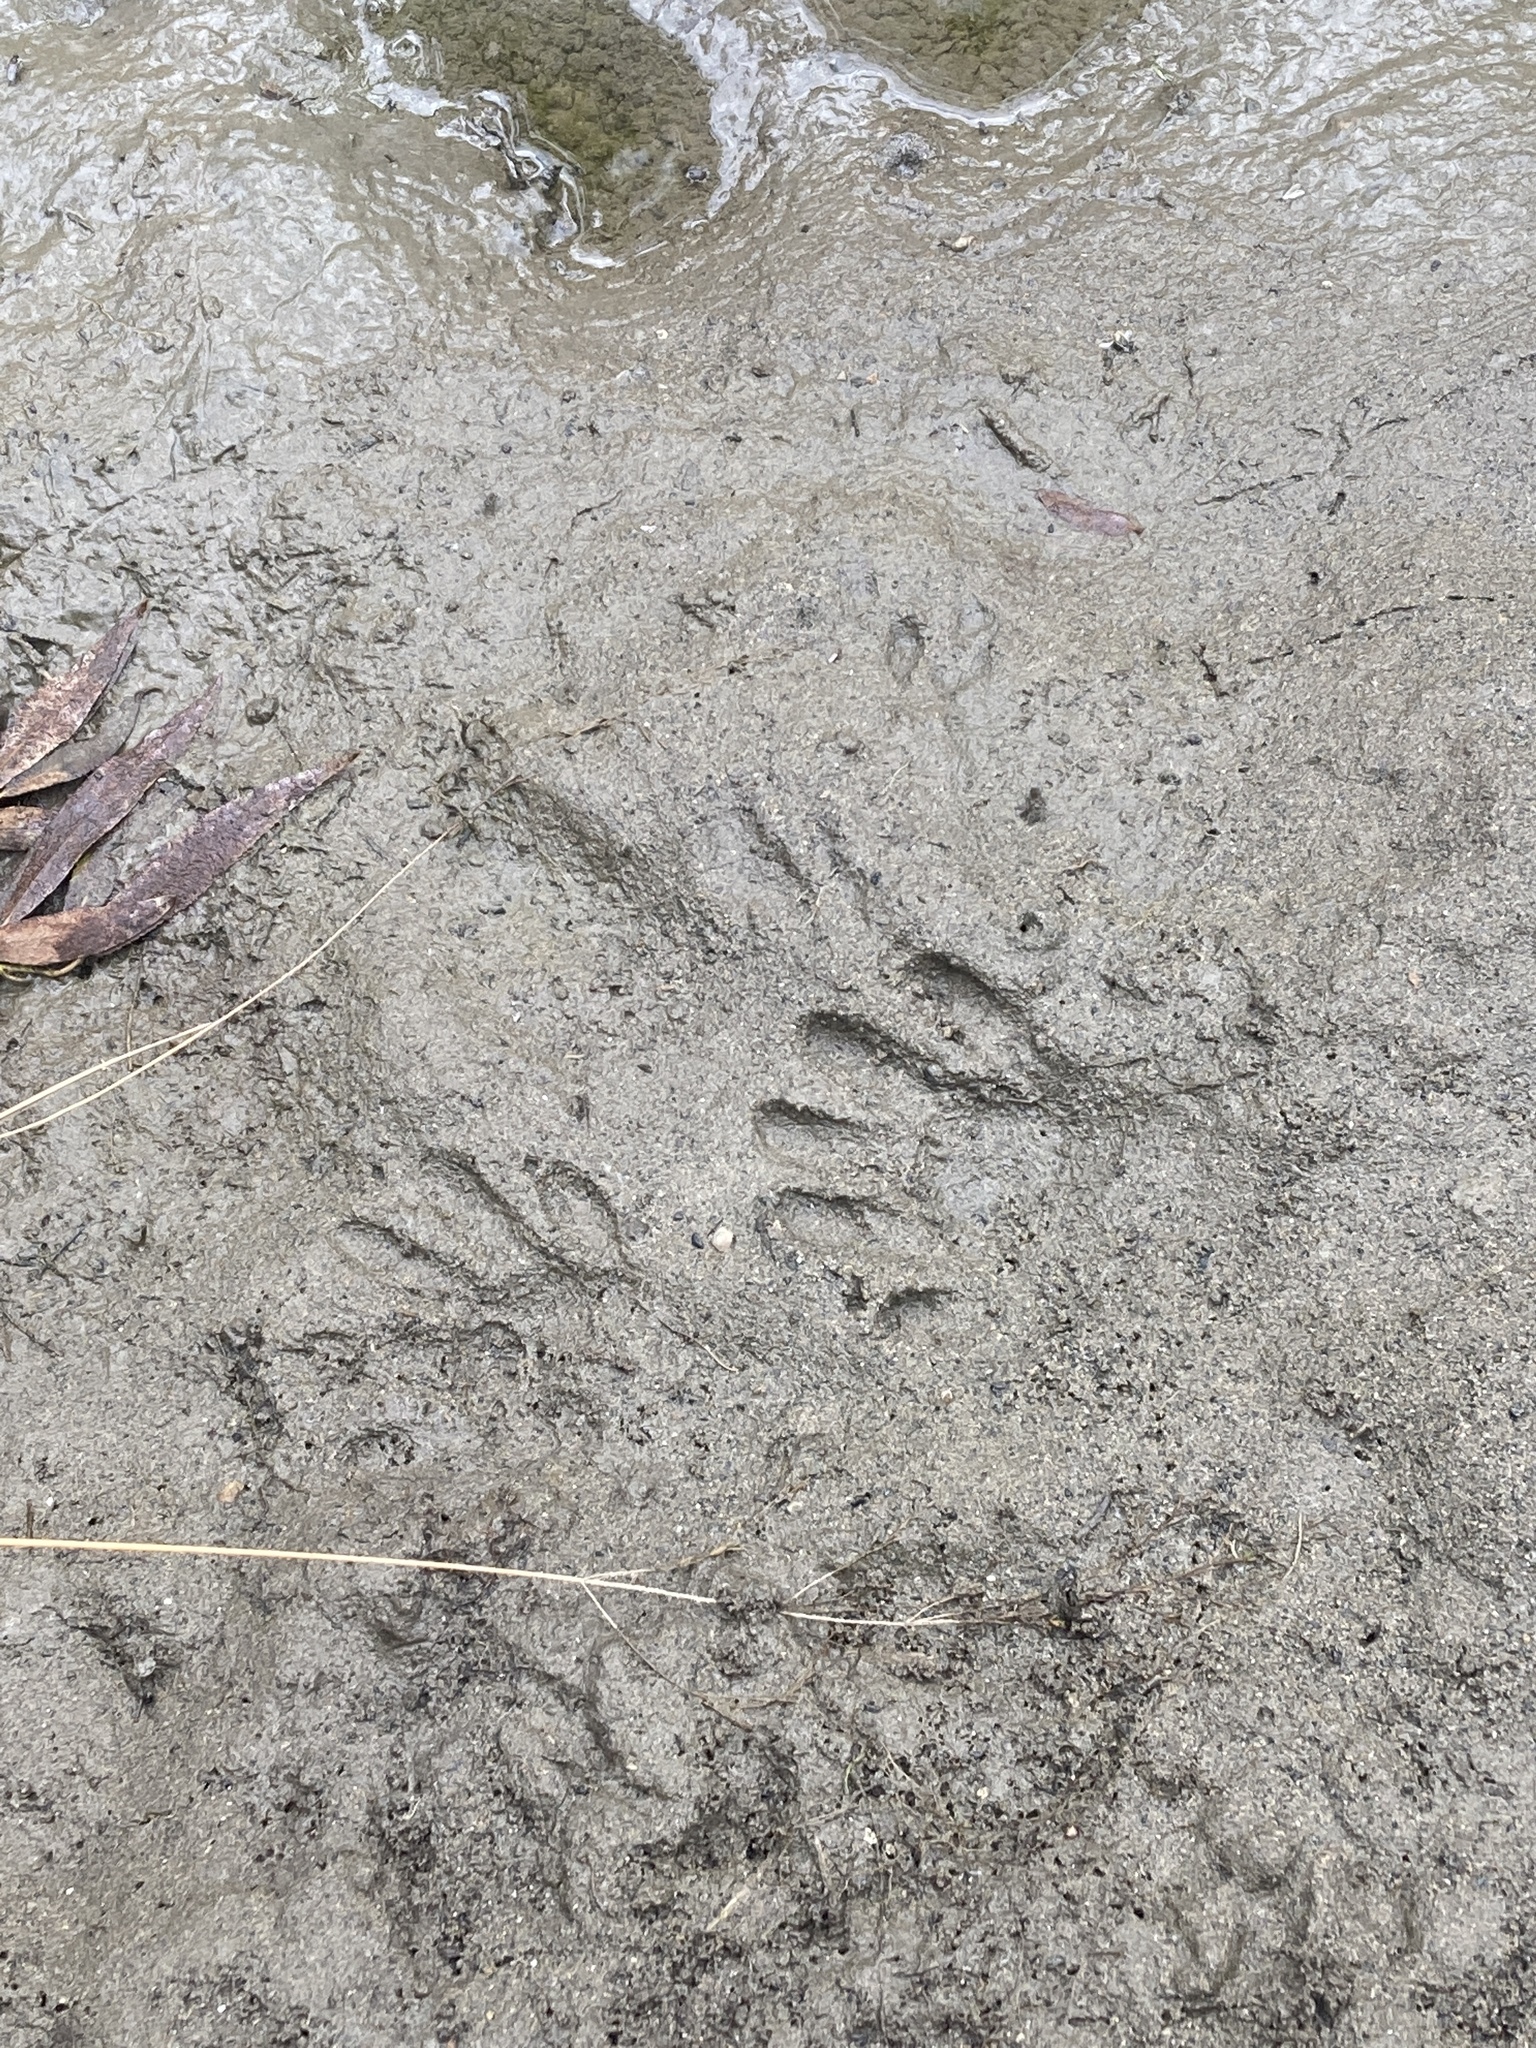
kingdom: Animalia
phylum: Chordata
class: Mammalia
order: Carnivora
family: Procyonidae
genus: Procyon
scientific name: Procyon lotor
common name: Raccoon
